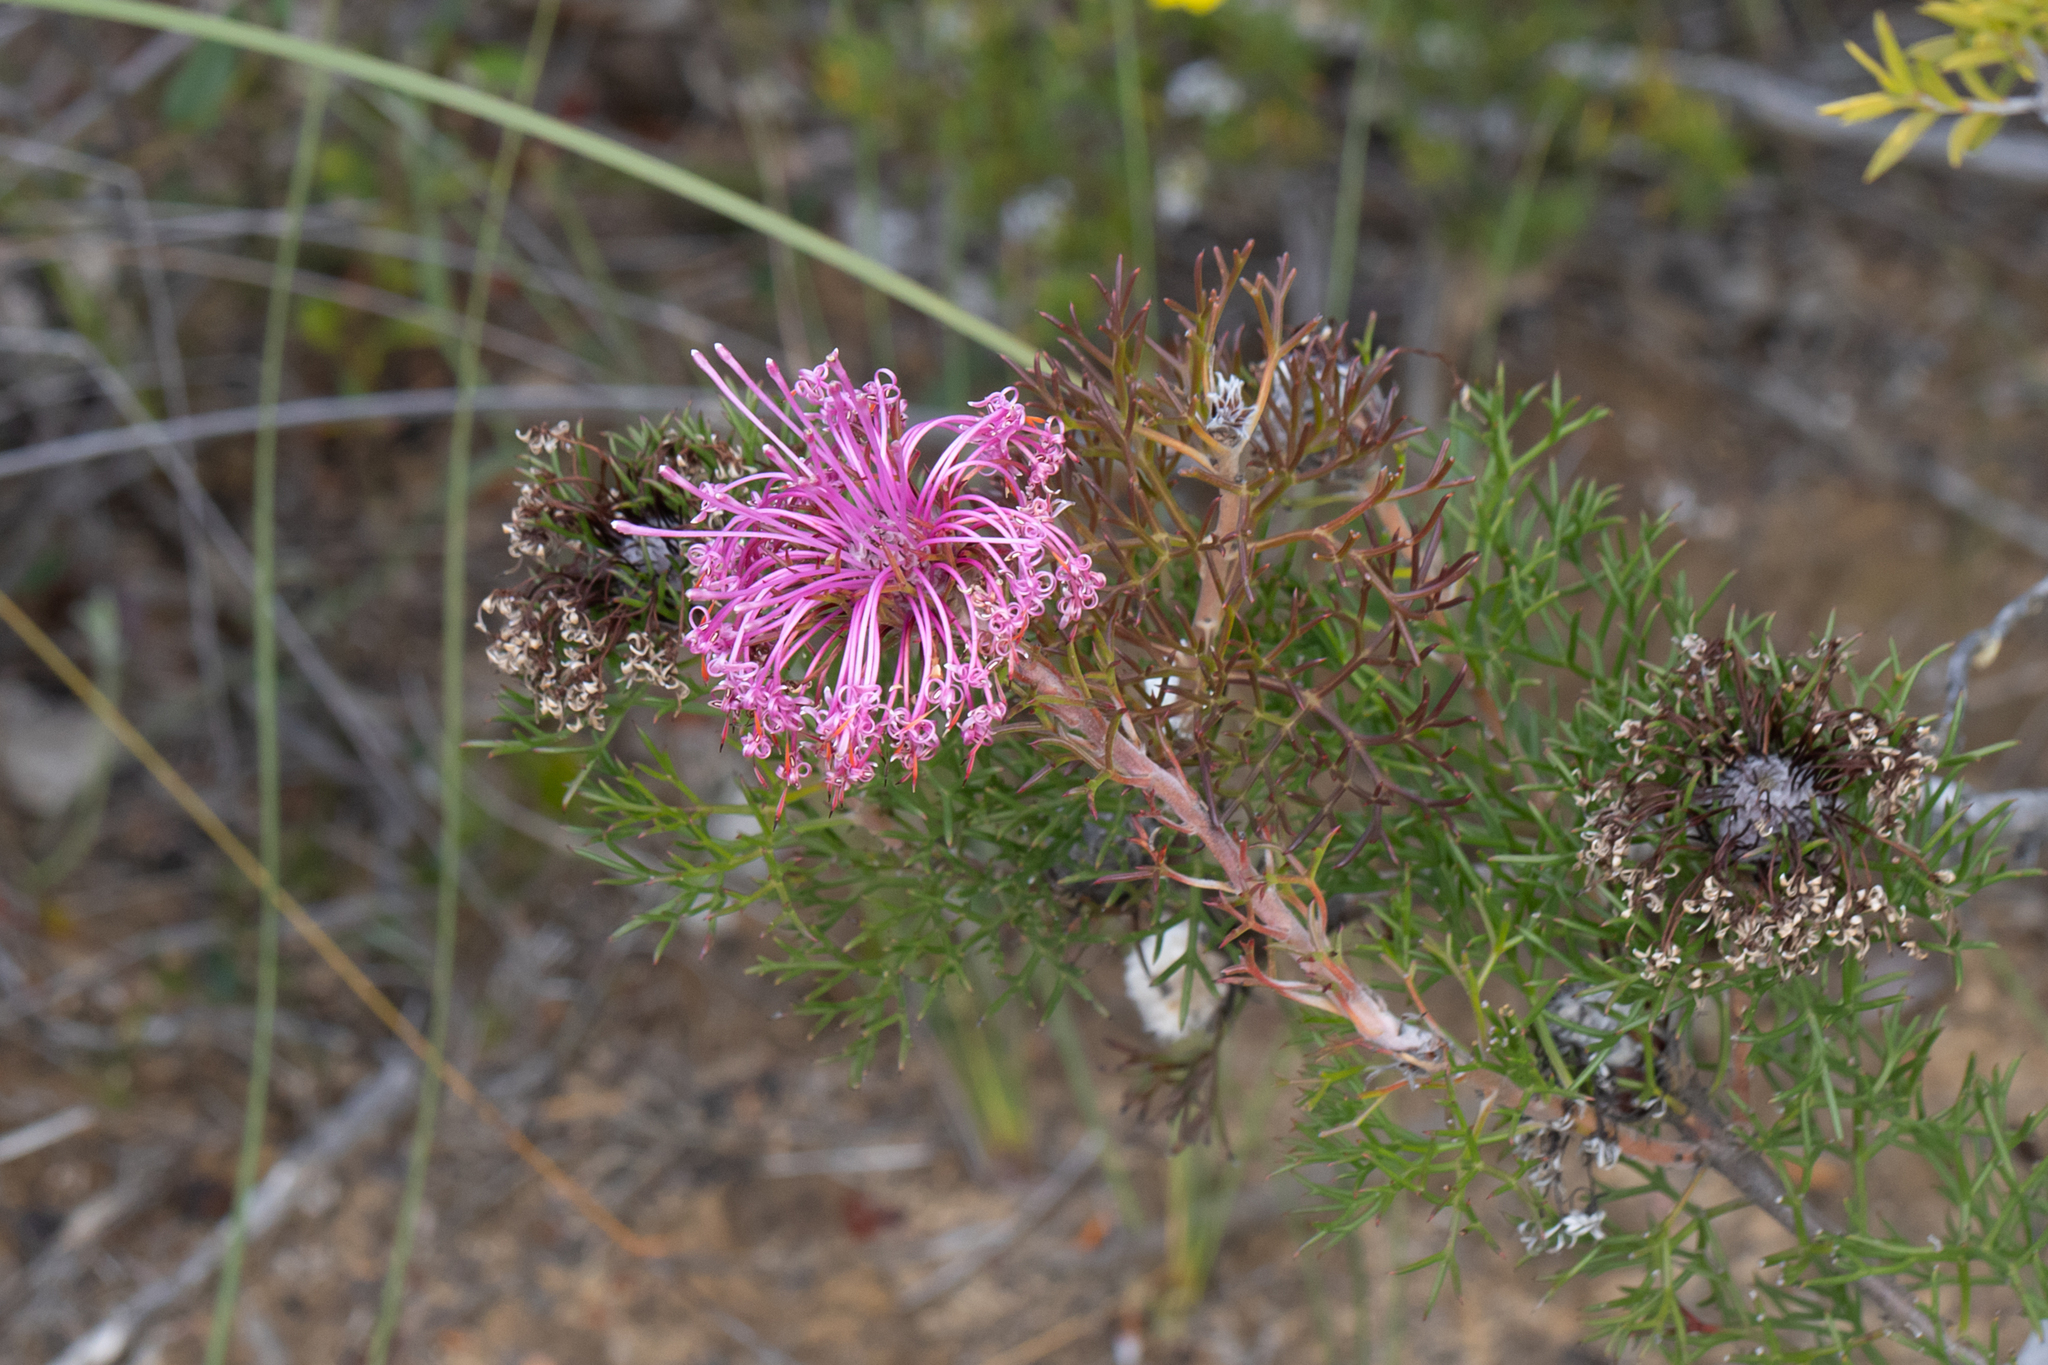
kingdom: Plantae
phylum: Tracheophyta
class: Magnoliopsida
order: Proteales
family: Proteaceae
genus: Isopogon
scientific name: Isopogon formosus
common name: Rose-coneflower
